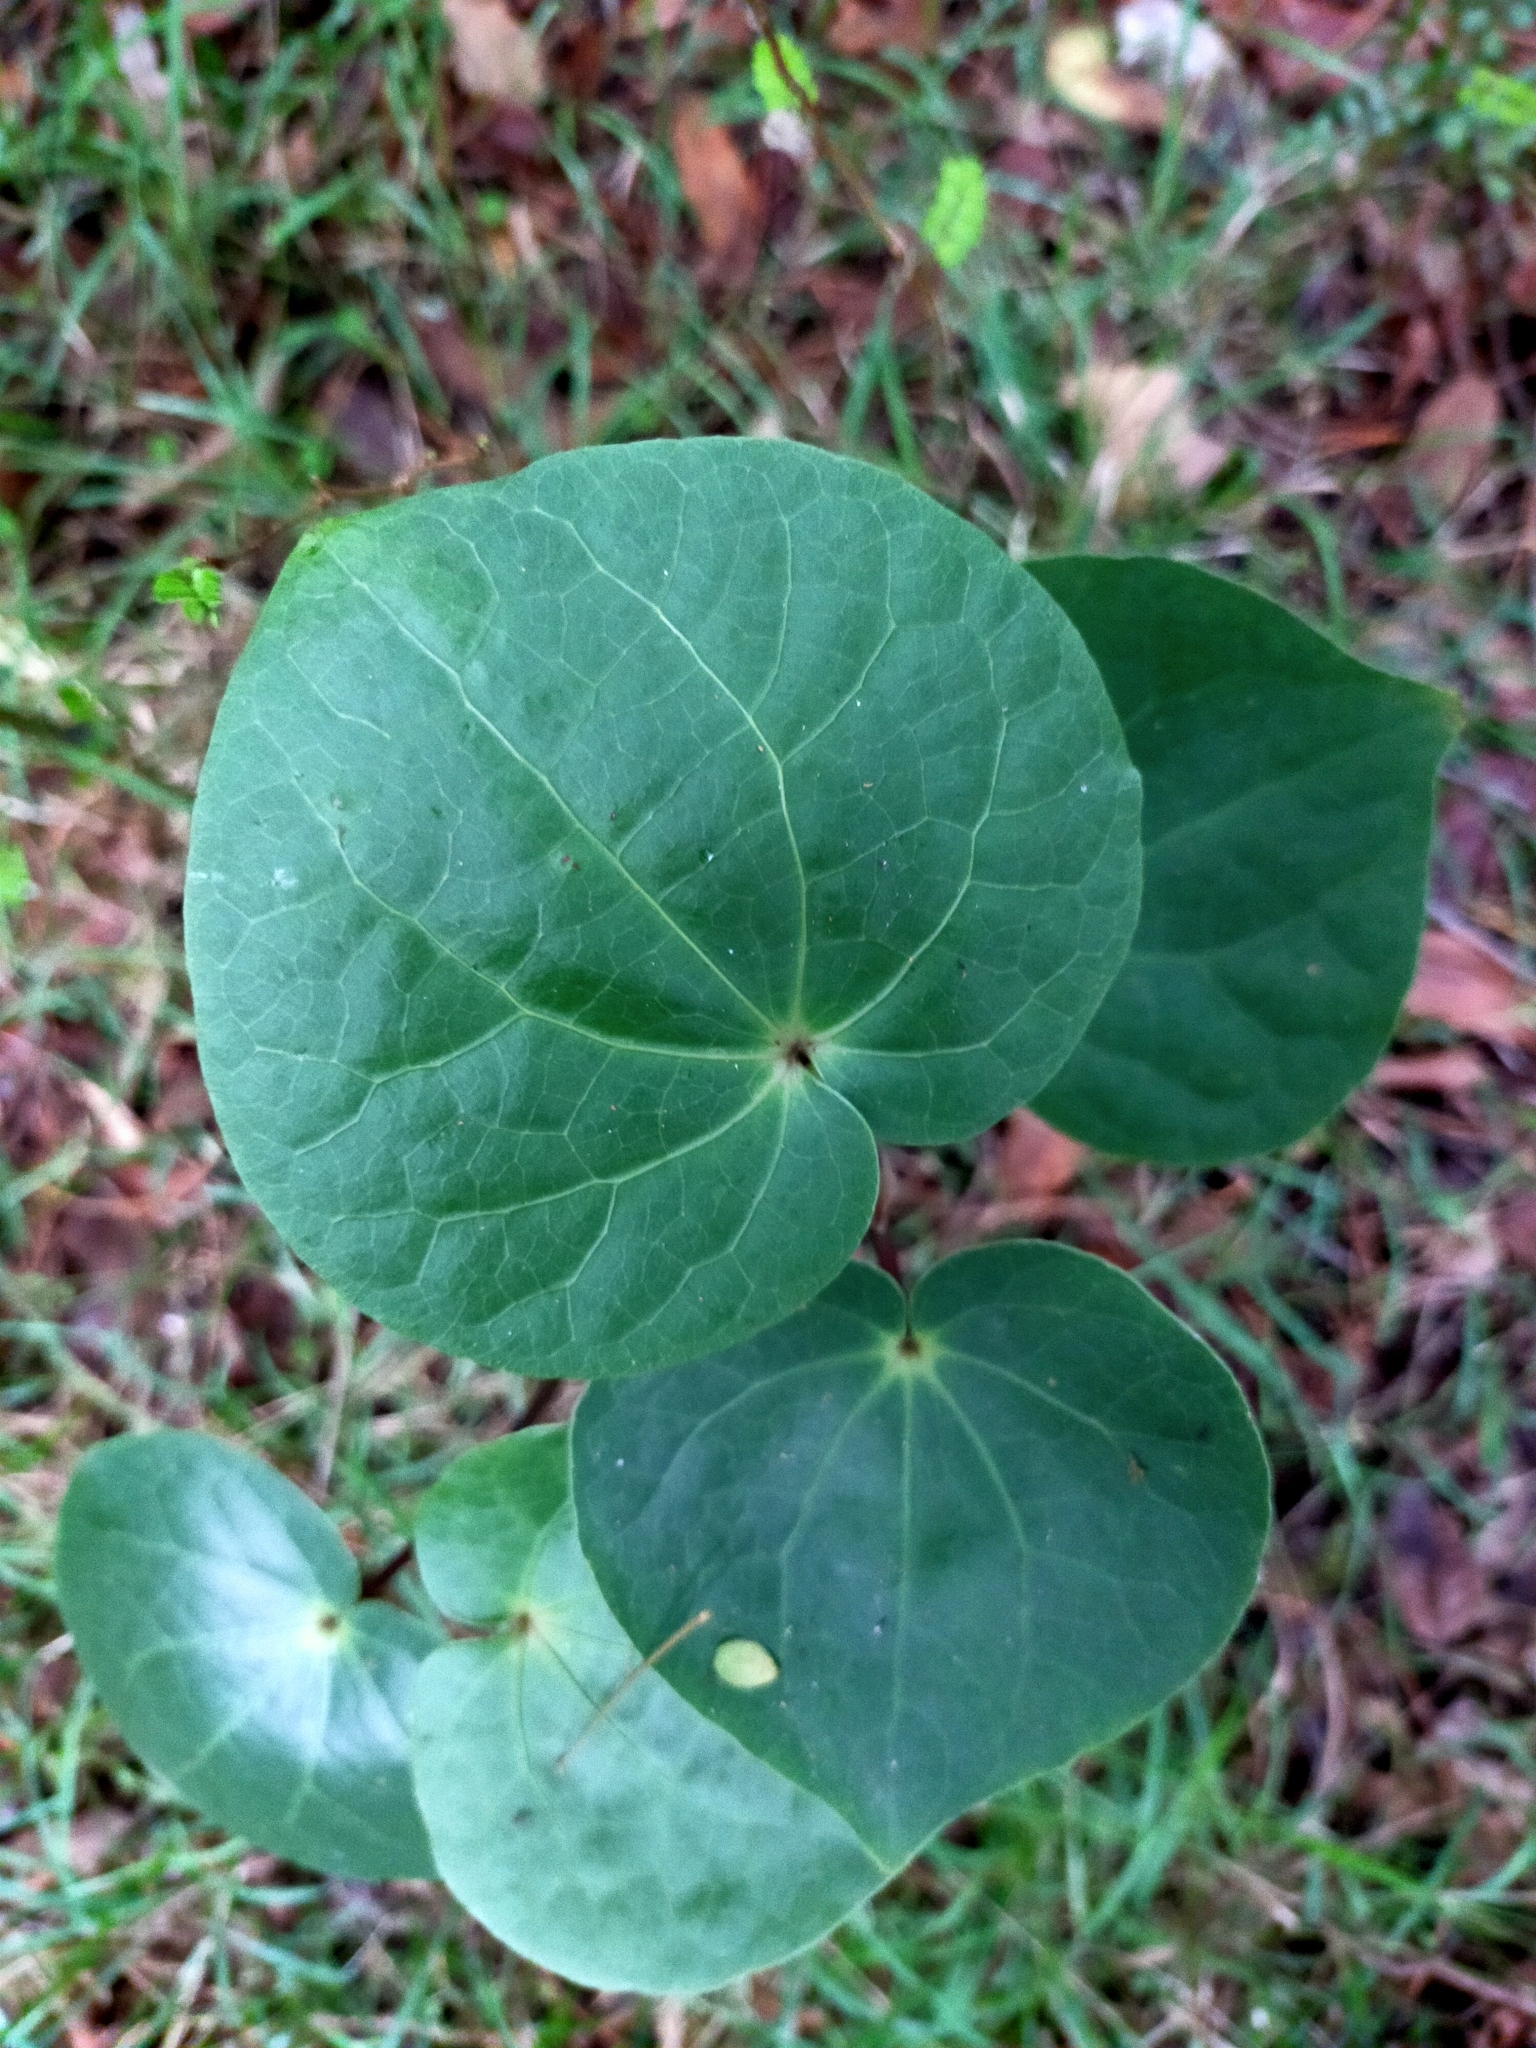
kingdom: Plantae
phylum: Tracheophyta
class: Magnoliopsida
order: Piperales
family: Piperaceae
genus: Macropiper
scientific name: Macropiper excelsum
